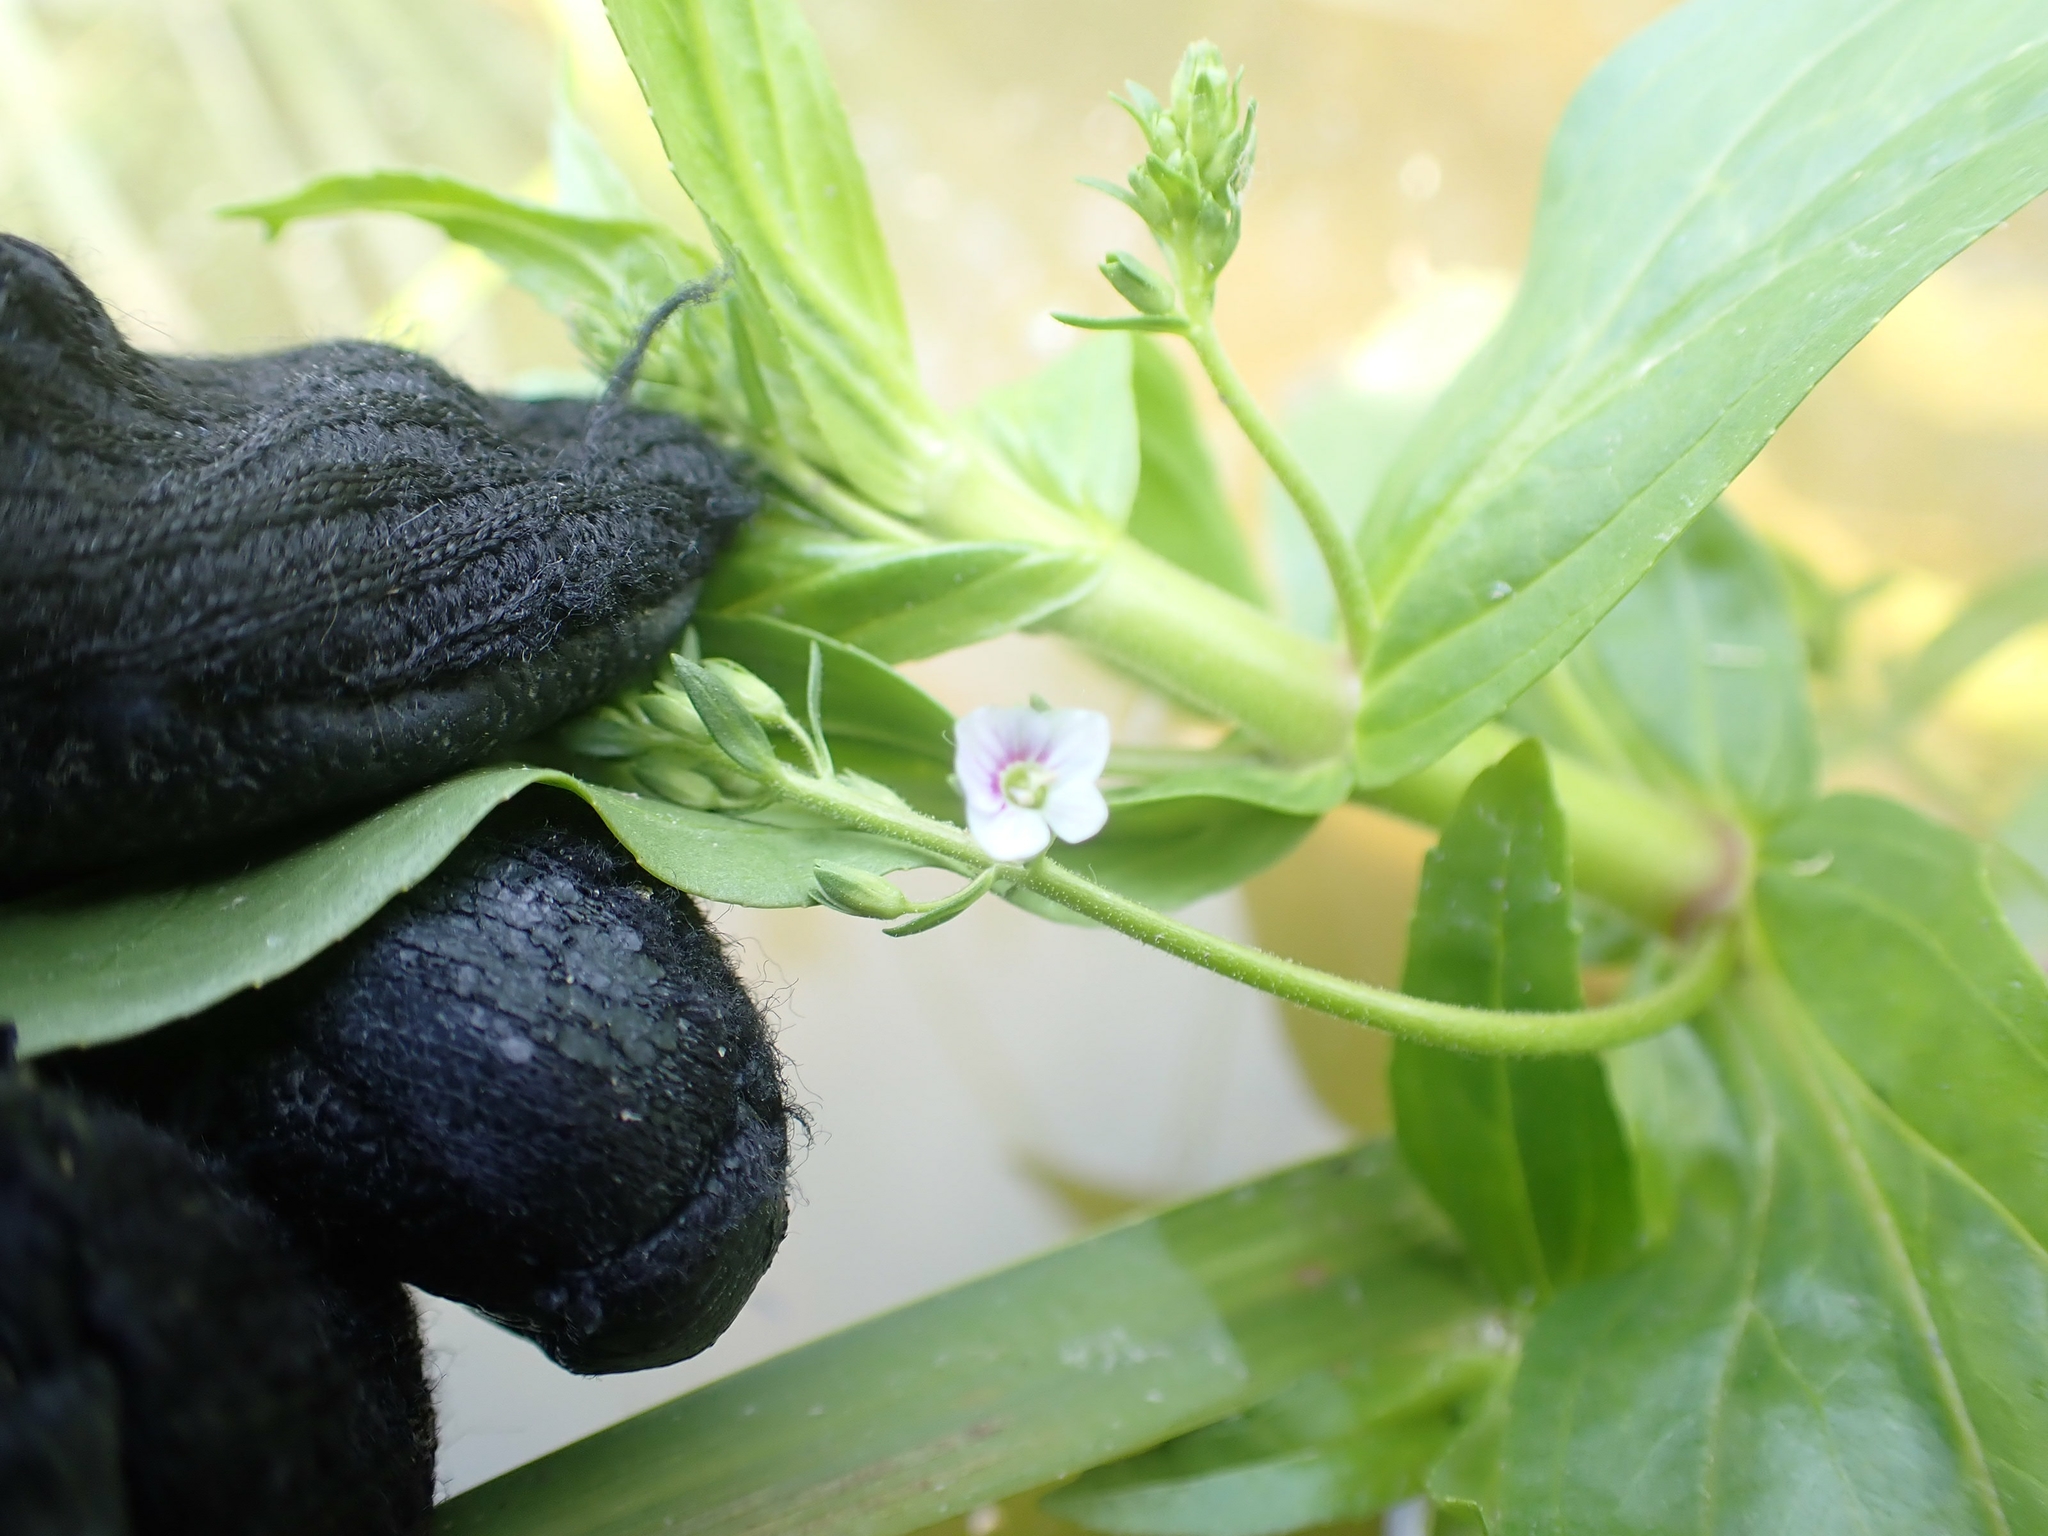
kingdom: Plantae
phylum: Tracheophyta
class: Magnoliopsida
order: Lamiales
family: Plantaginaceae
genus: Veronica
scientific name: Veronica catenata
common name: Pink water-speedwell
